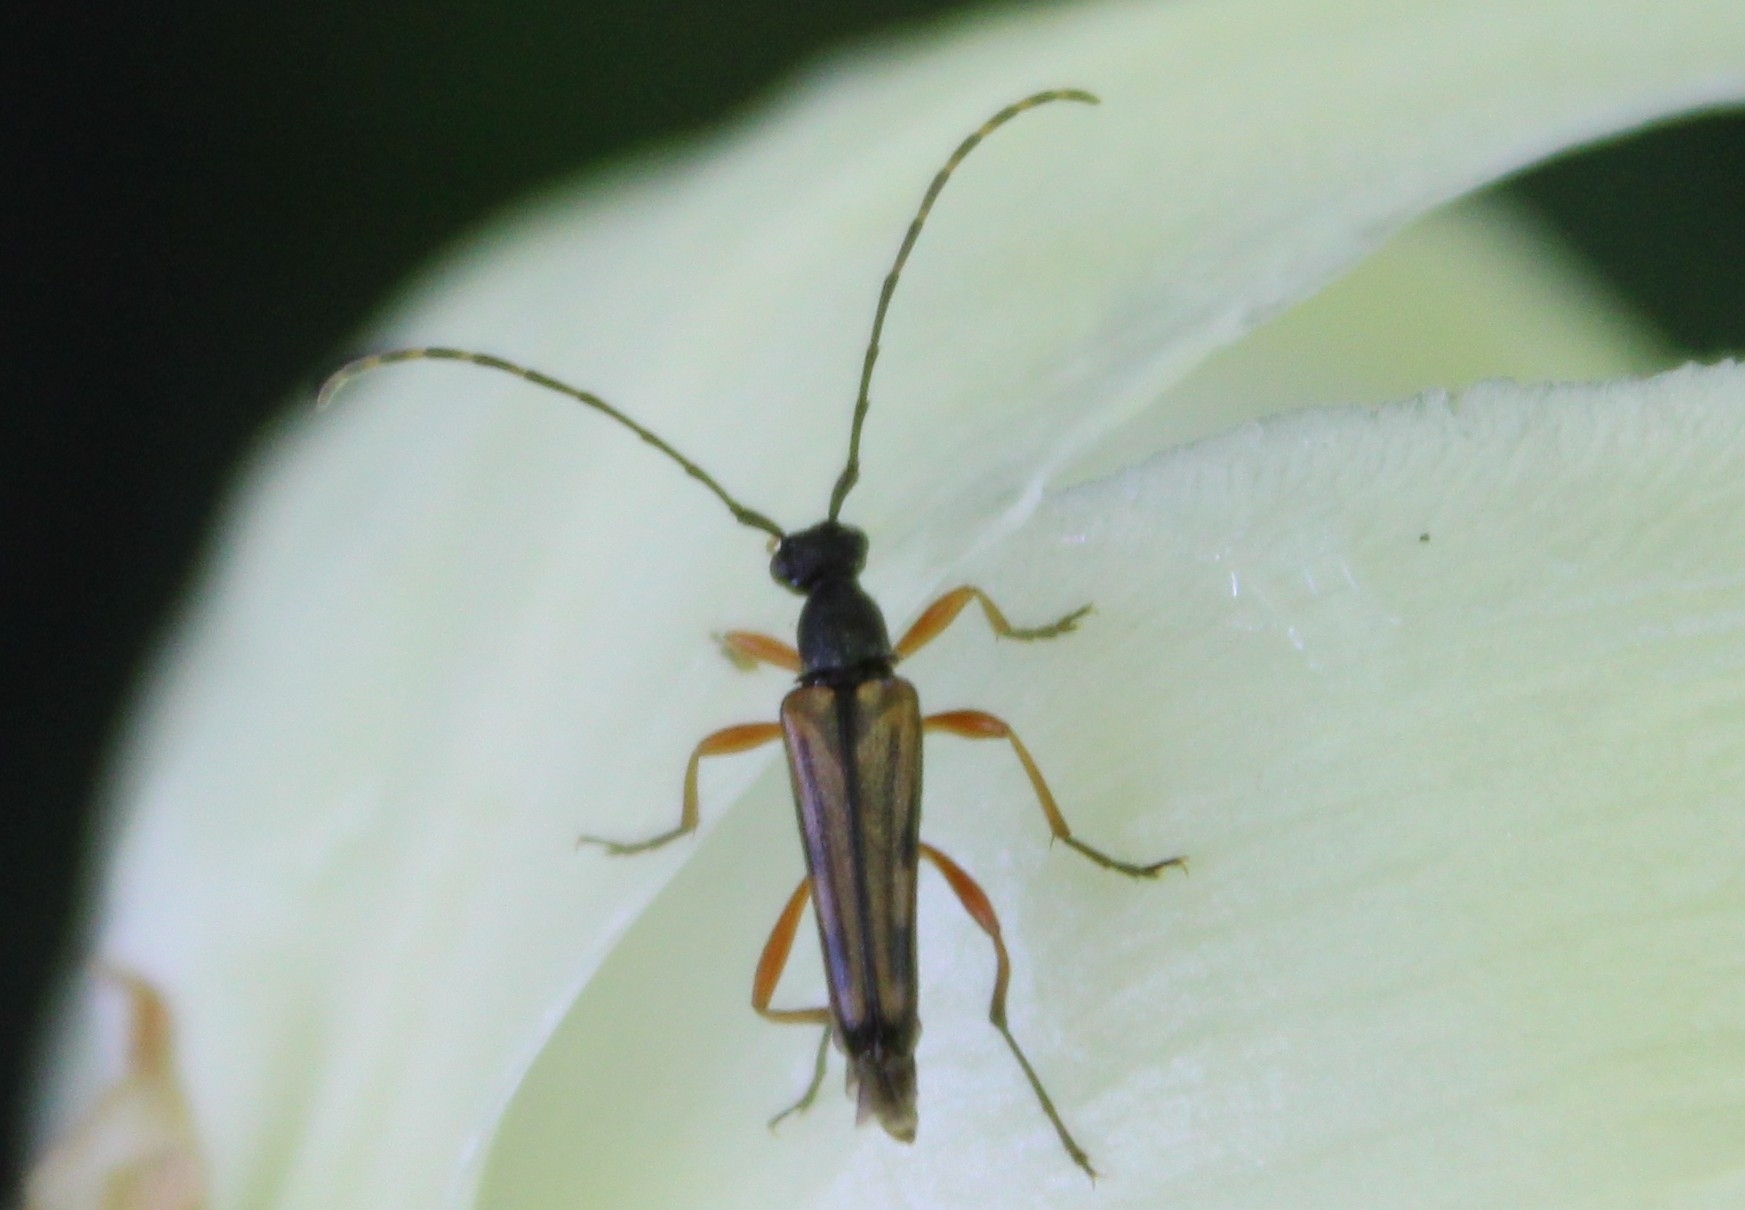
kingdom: Animalia
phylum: Arthropoda
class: Insecta
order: Coleoptera
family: Cerambycidae
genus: Analeptura
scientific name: Analeptura lineola
